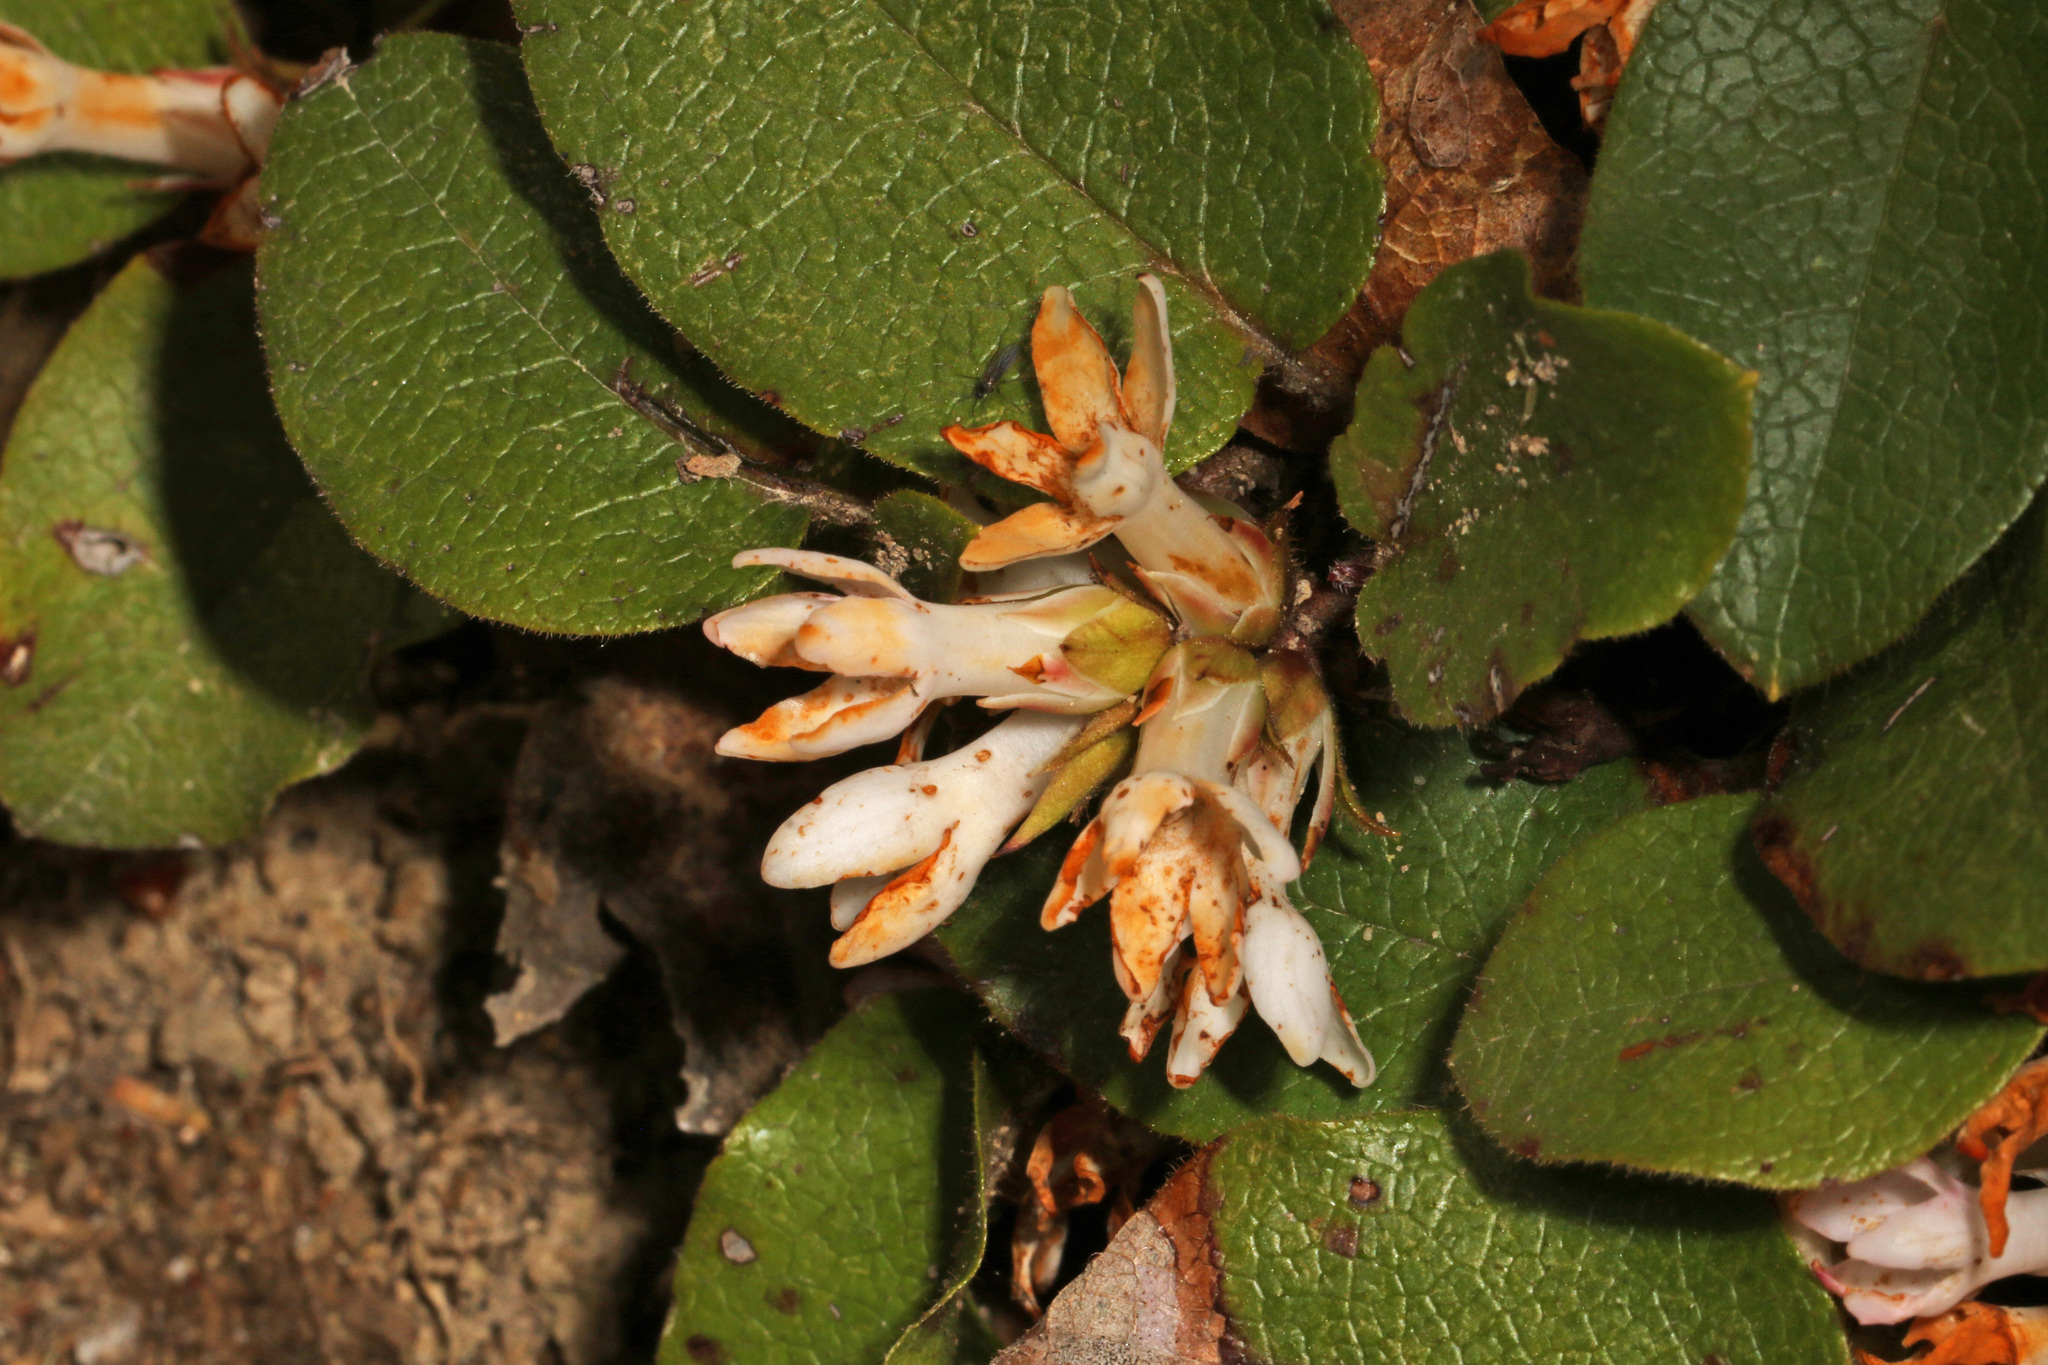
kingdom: Plantae
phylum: Tracheophyta
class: Magnoliopsida
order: Ericales
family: Ericaceae
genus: Epigaea
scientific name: Epigaea repens
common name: Gravelroot
